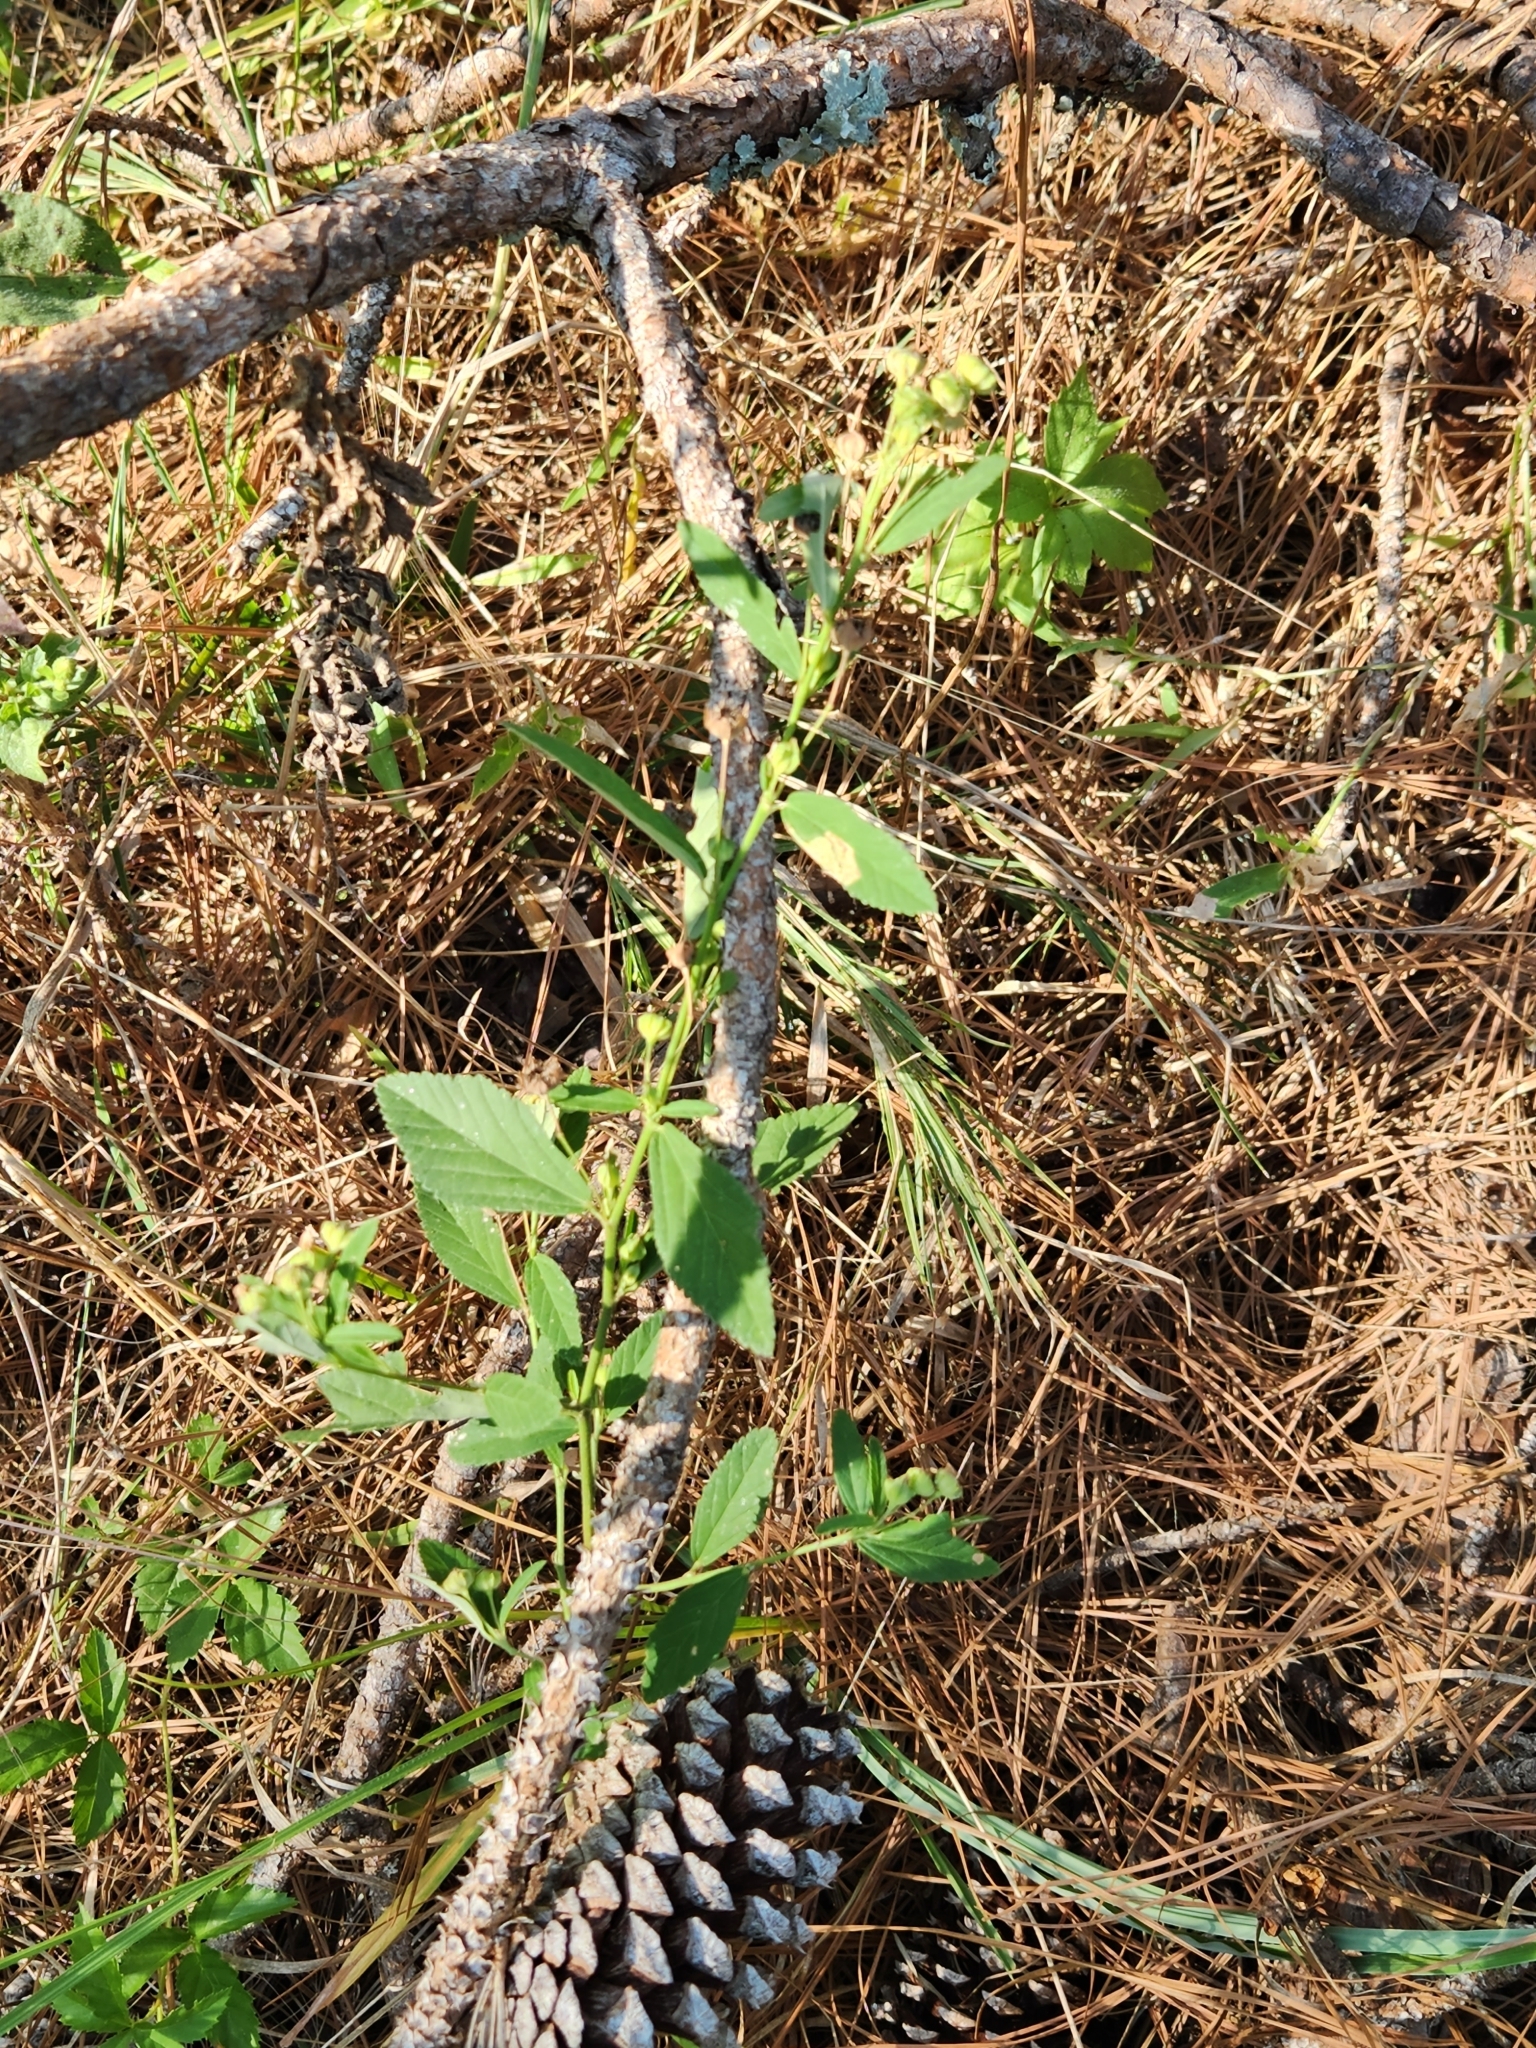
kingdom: Plantae
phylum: Tracheophyta
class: Magnoliopsida
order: Malvales
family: Malvaceae
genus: Sida
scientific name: Sida rhombifolia
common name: Queensland-hemp
